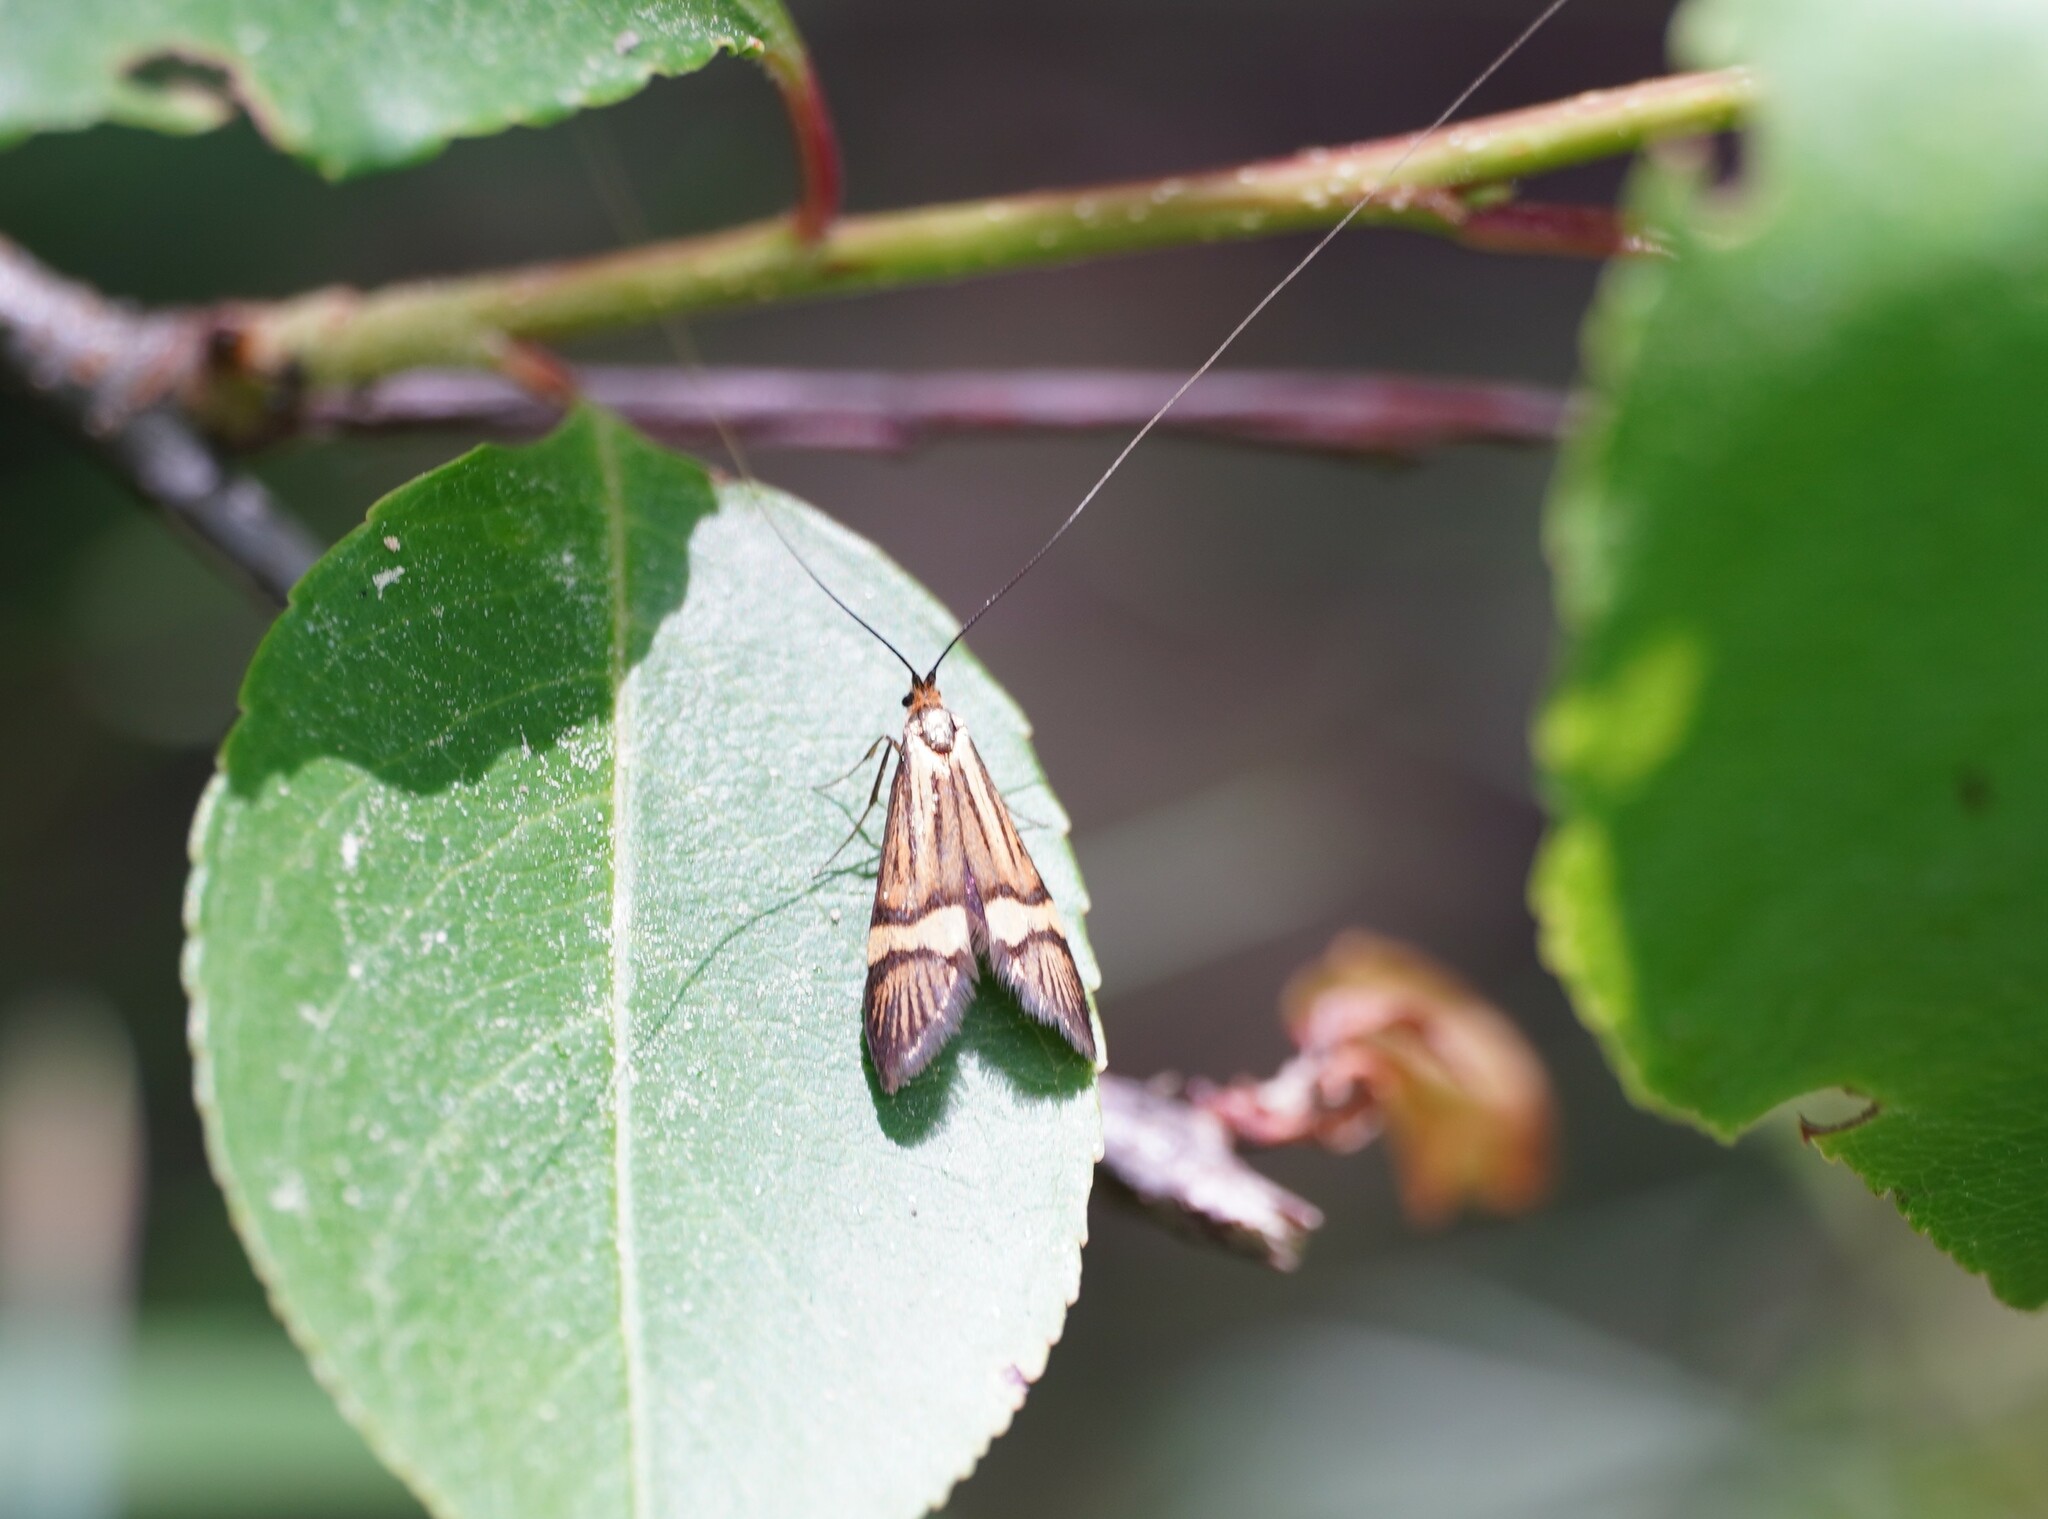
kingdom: Animalia
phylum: Arthropoda
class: Insecta
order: Lepidoptera
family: Adelidae
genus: Nemophora
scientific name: Nemophora
